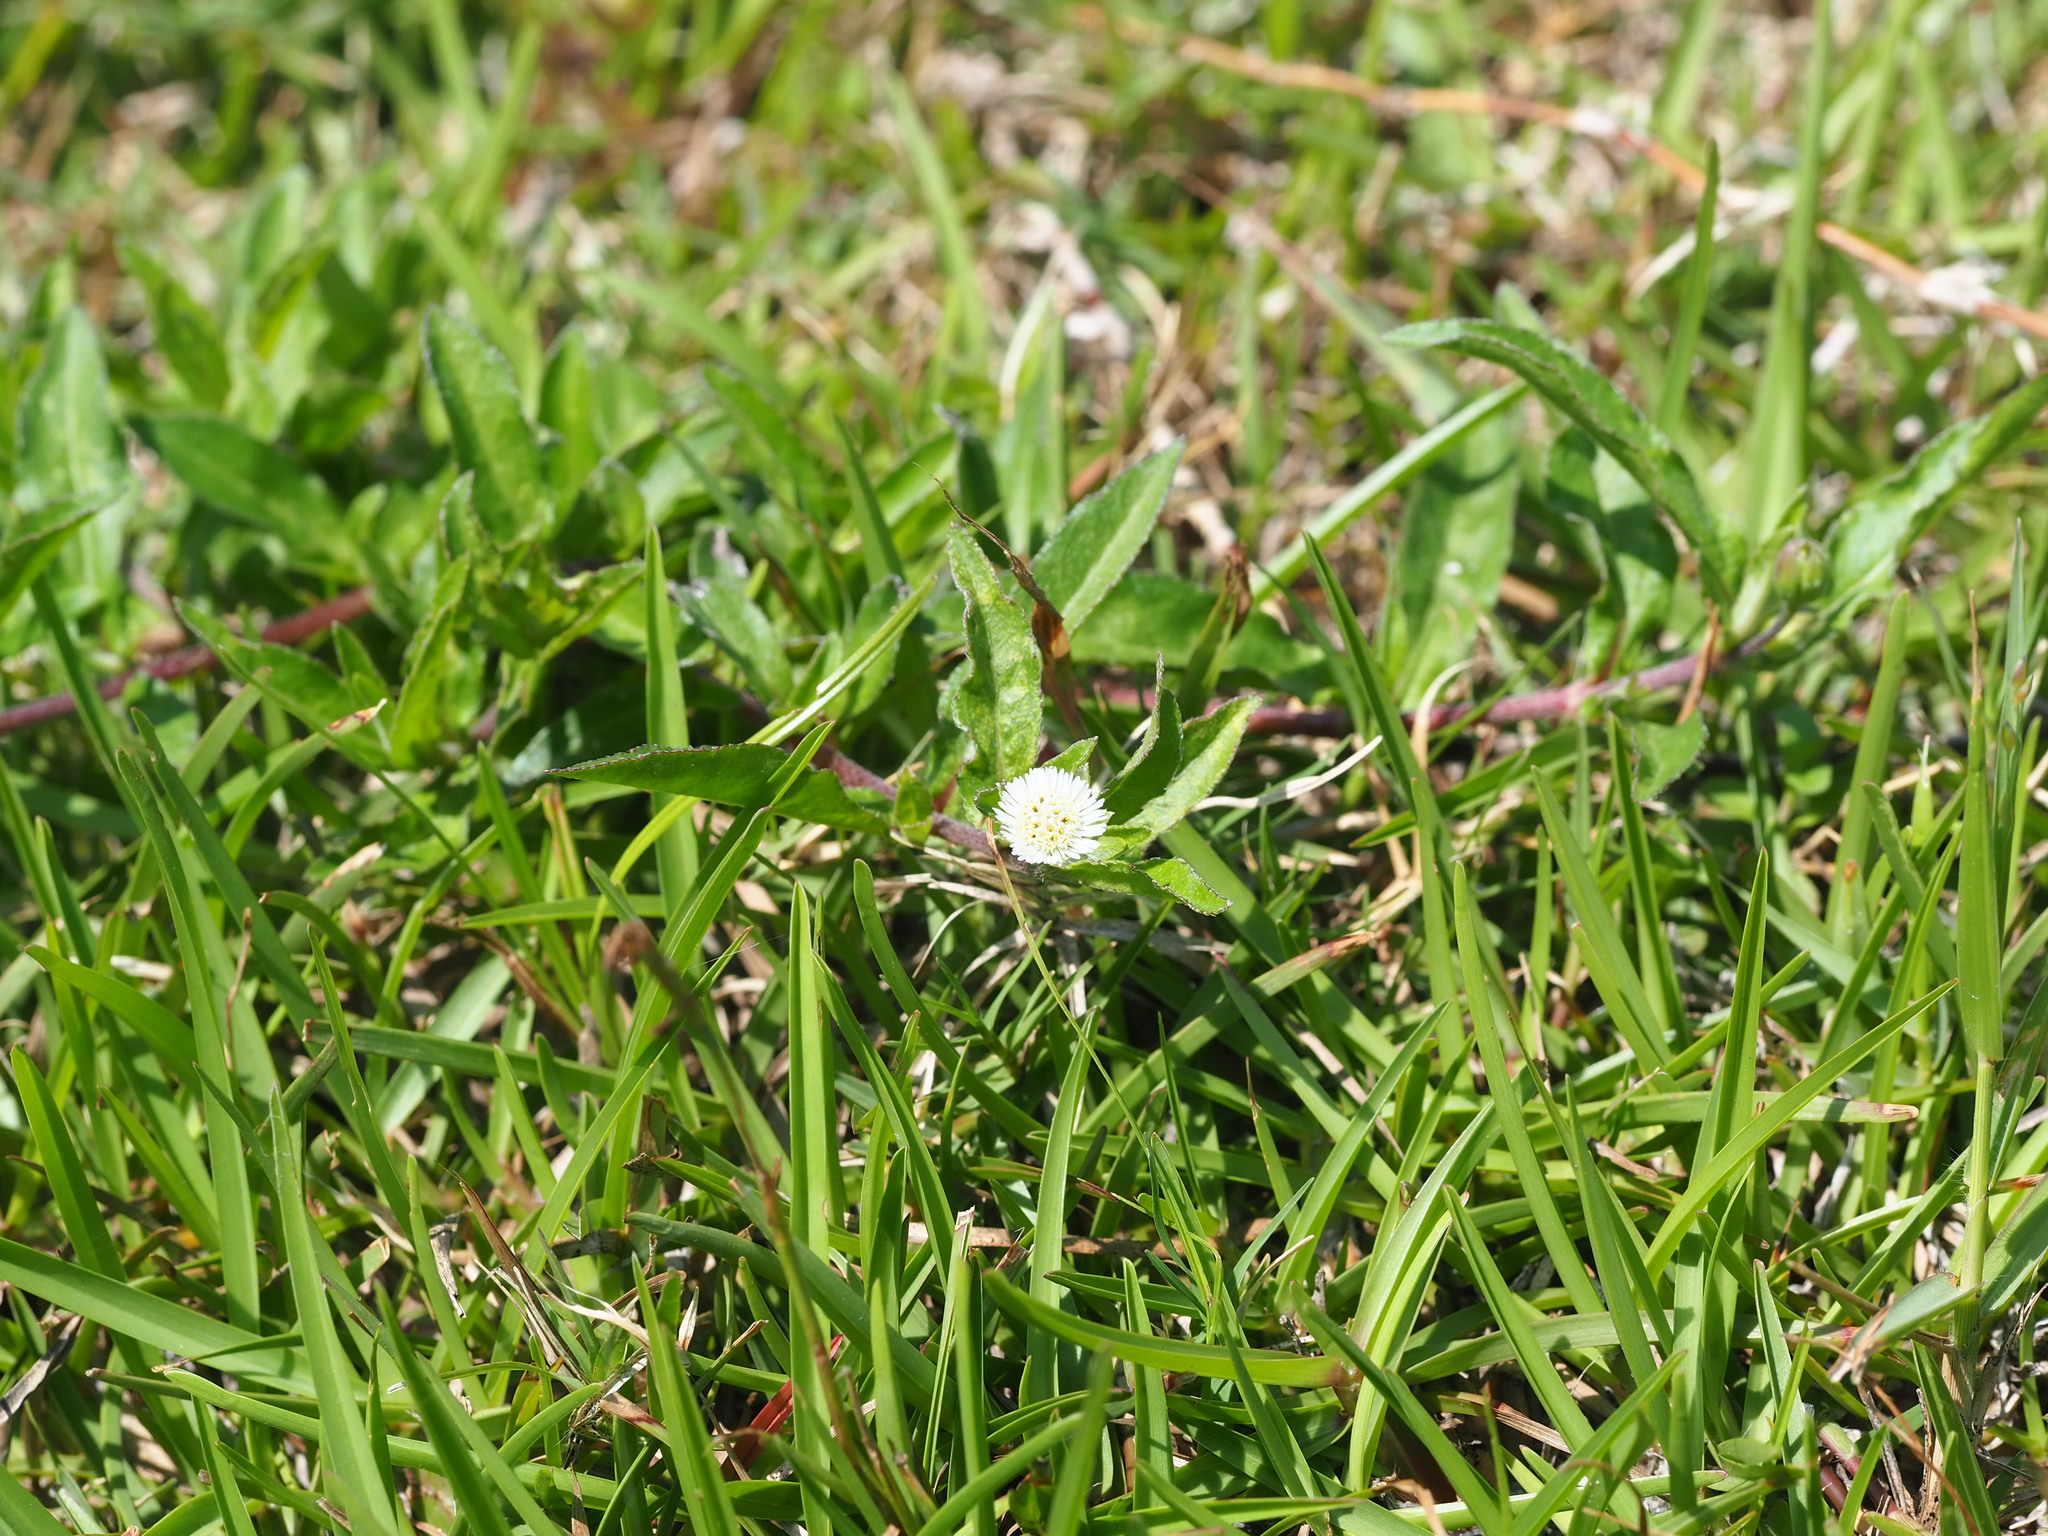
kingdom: Plantae
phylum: Tracheophyta
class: Magnoliopsida
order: Asterales
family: Asteraceae
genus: Eclipta
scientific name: Eclipta prostrata
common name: False daisy
